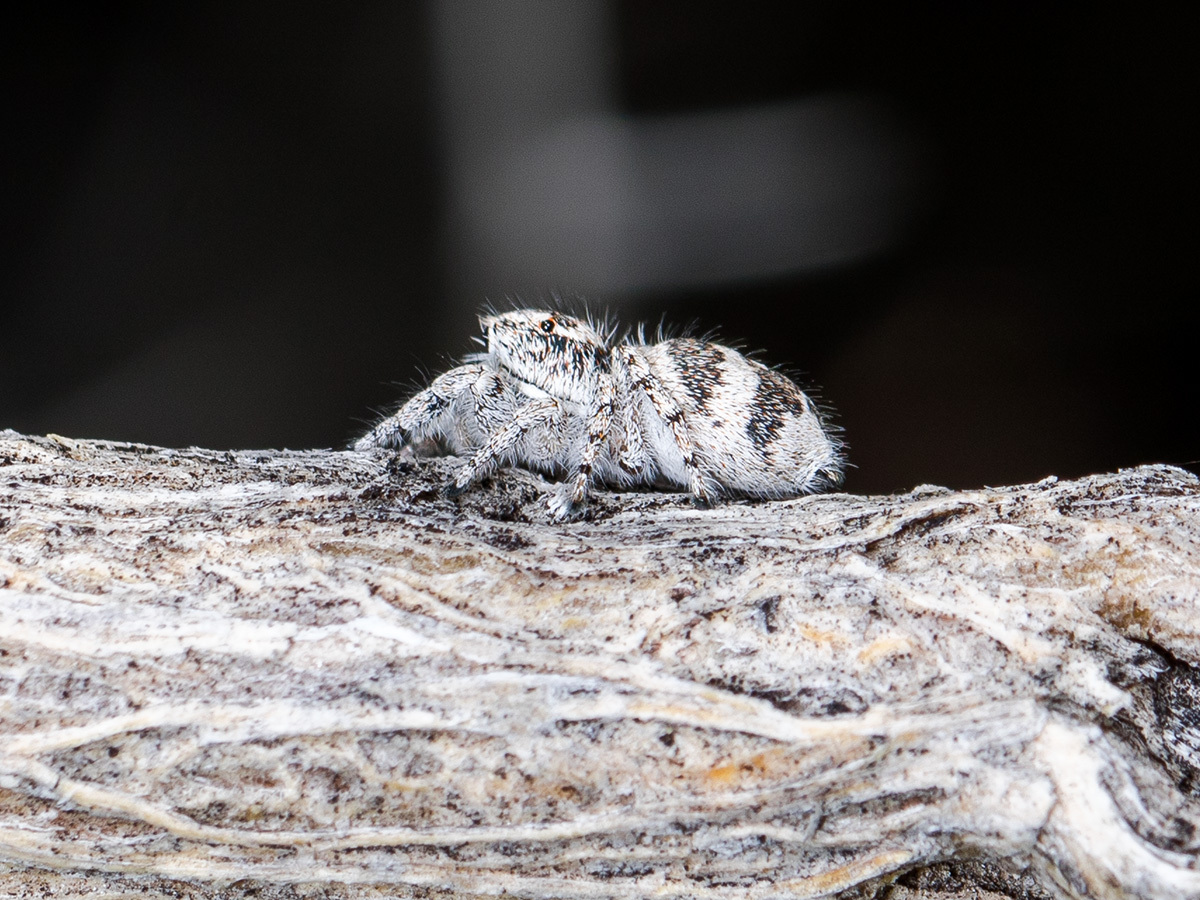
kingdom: Animalia
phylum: Arthropoda
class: Arachnida
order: Araneae
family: Salticidae
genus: Pseudomogrus
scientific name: Pseudomogrus albocinctus
